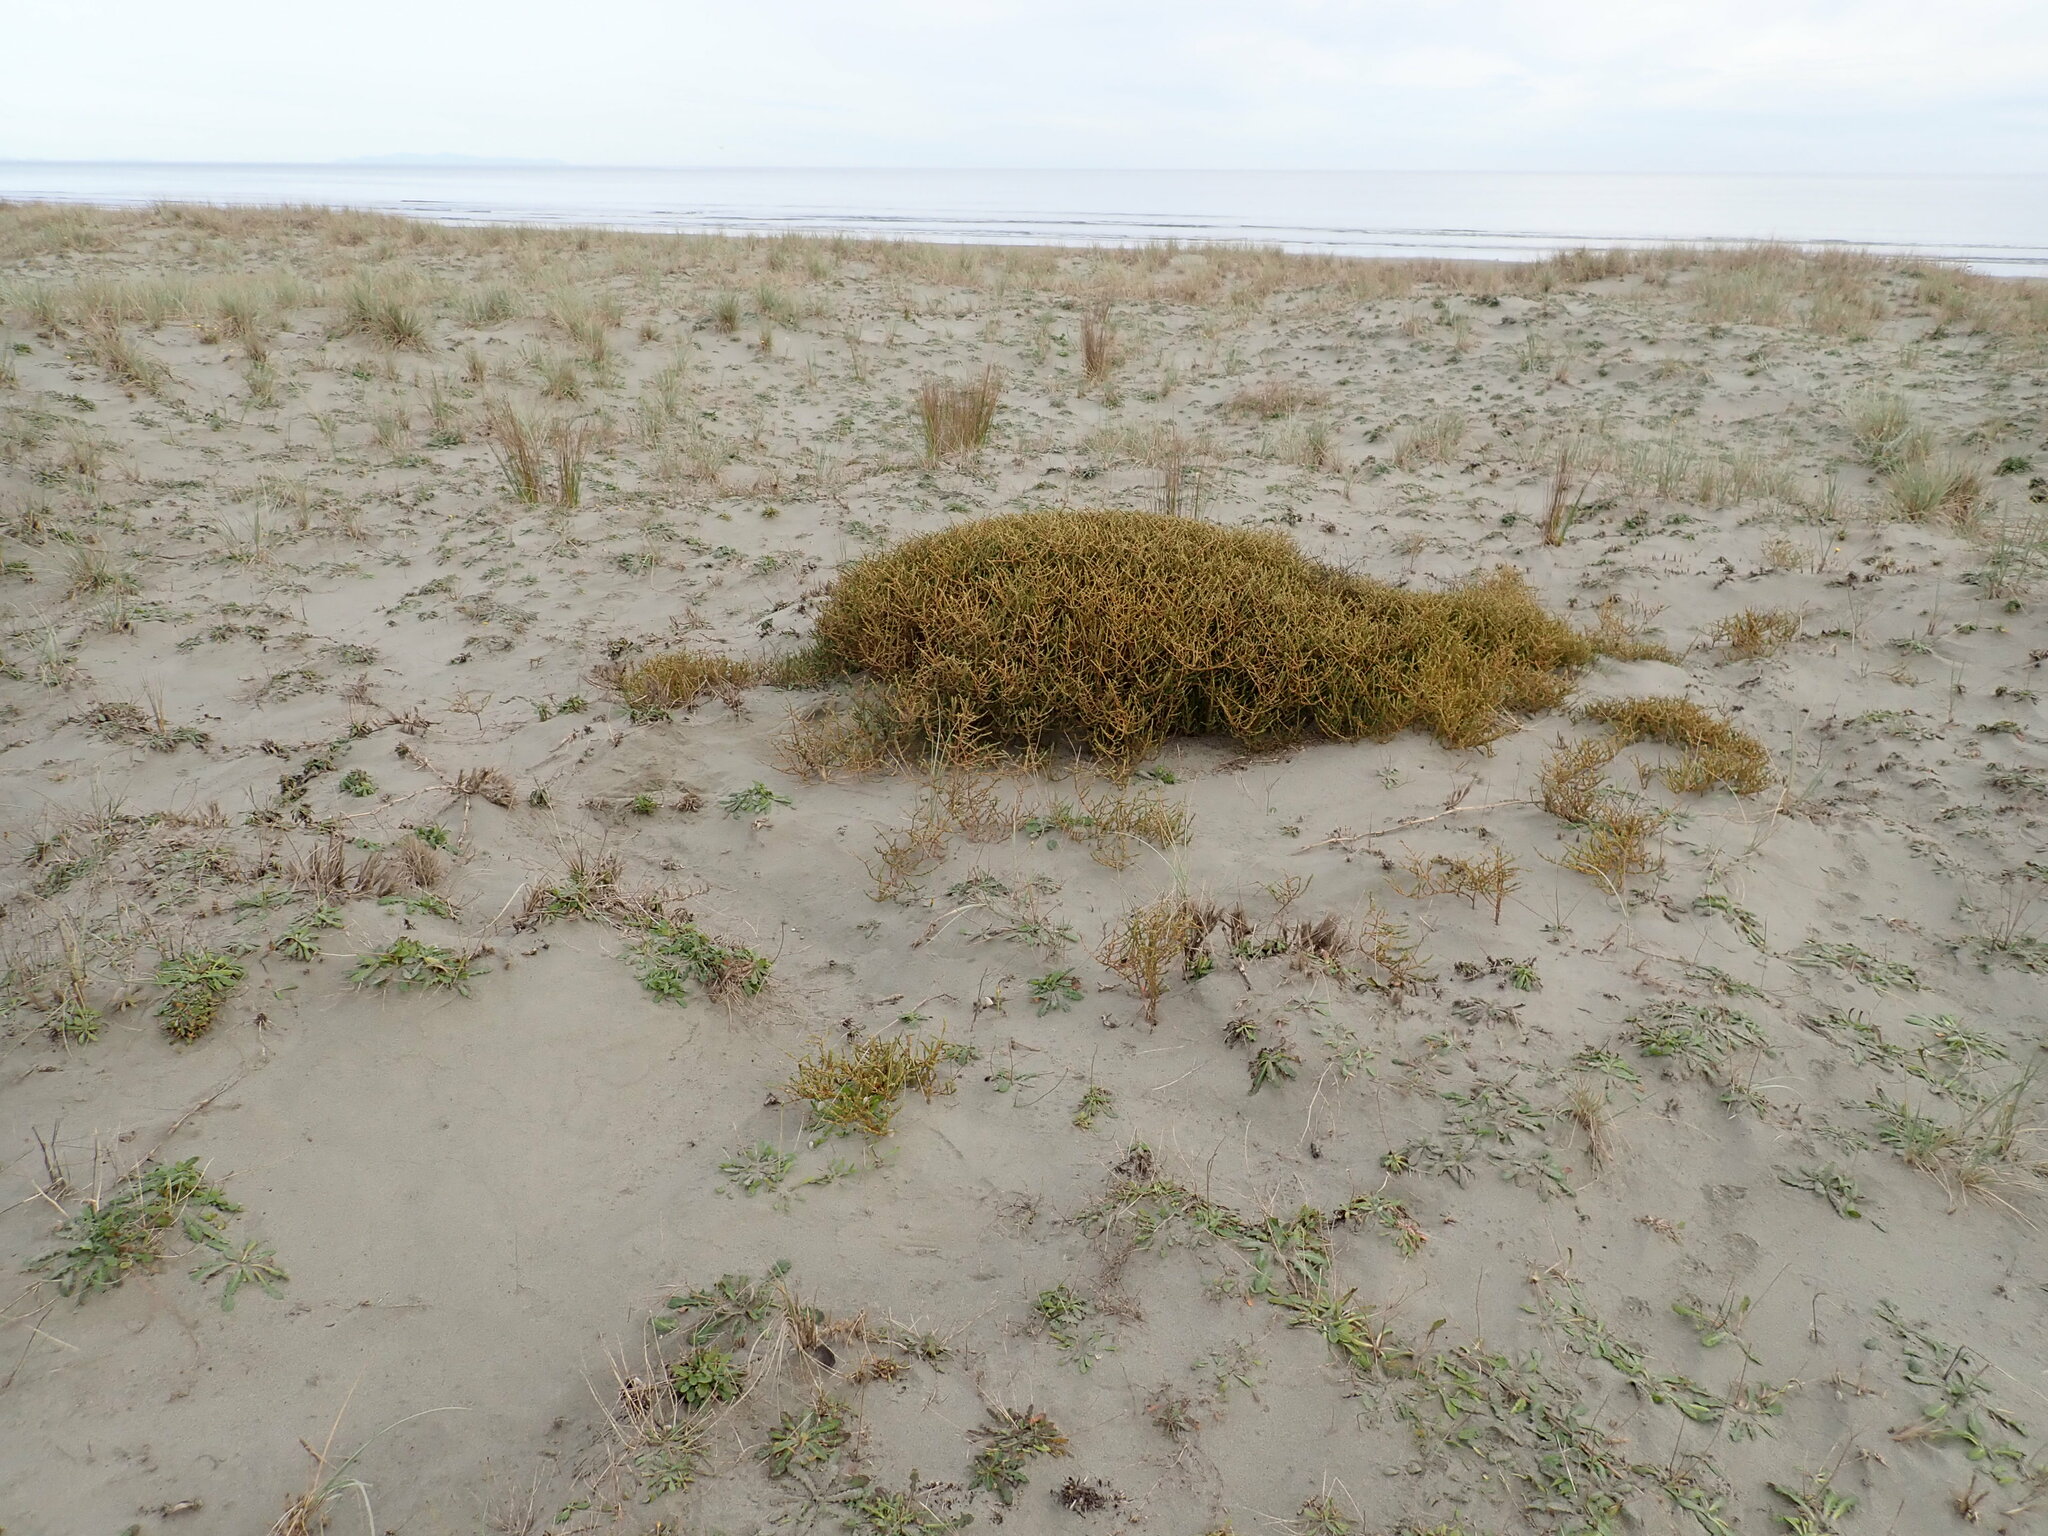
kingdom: Plantae
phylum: Tracheophyta
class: Magnoliopsida
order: Gentianales
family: Rubiaceae
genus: Coprosma
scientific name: Coprosma acerosa
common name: Sand coprosma
